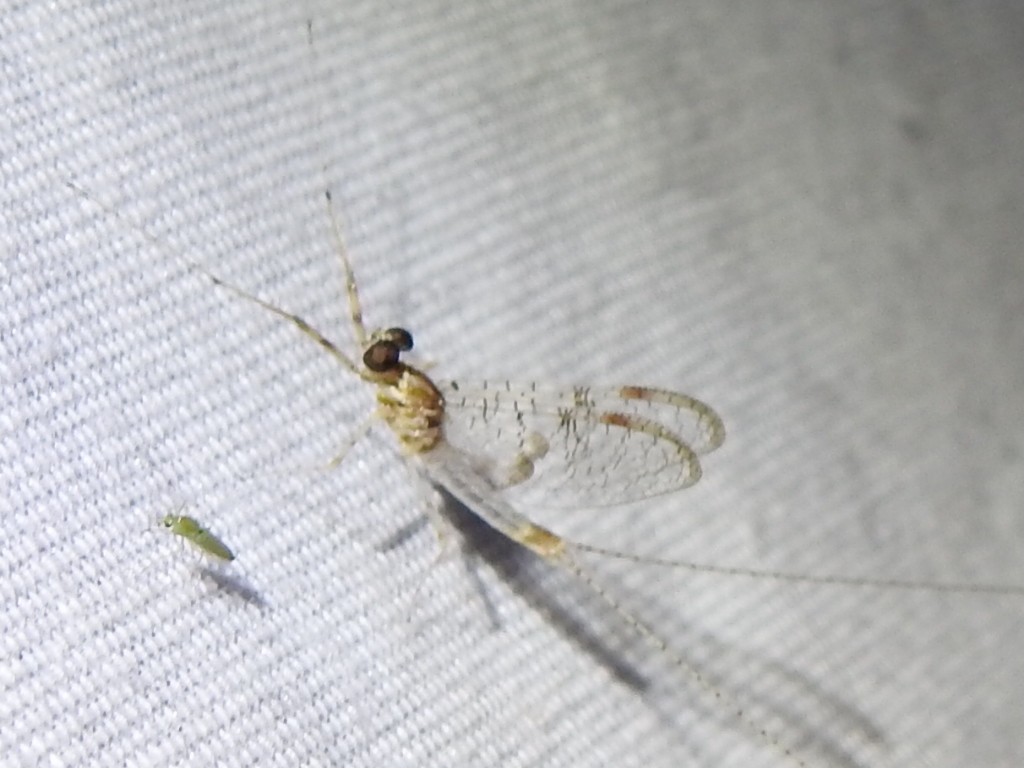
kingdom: Animalia
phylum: Arthropoda
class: Insecta
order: Ephemeroptera
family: Heptageniidae
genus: Stenonema
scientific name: Stenonema femoratum
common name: Dark cahill
